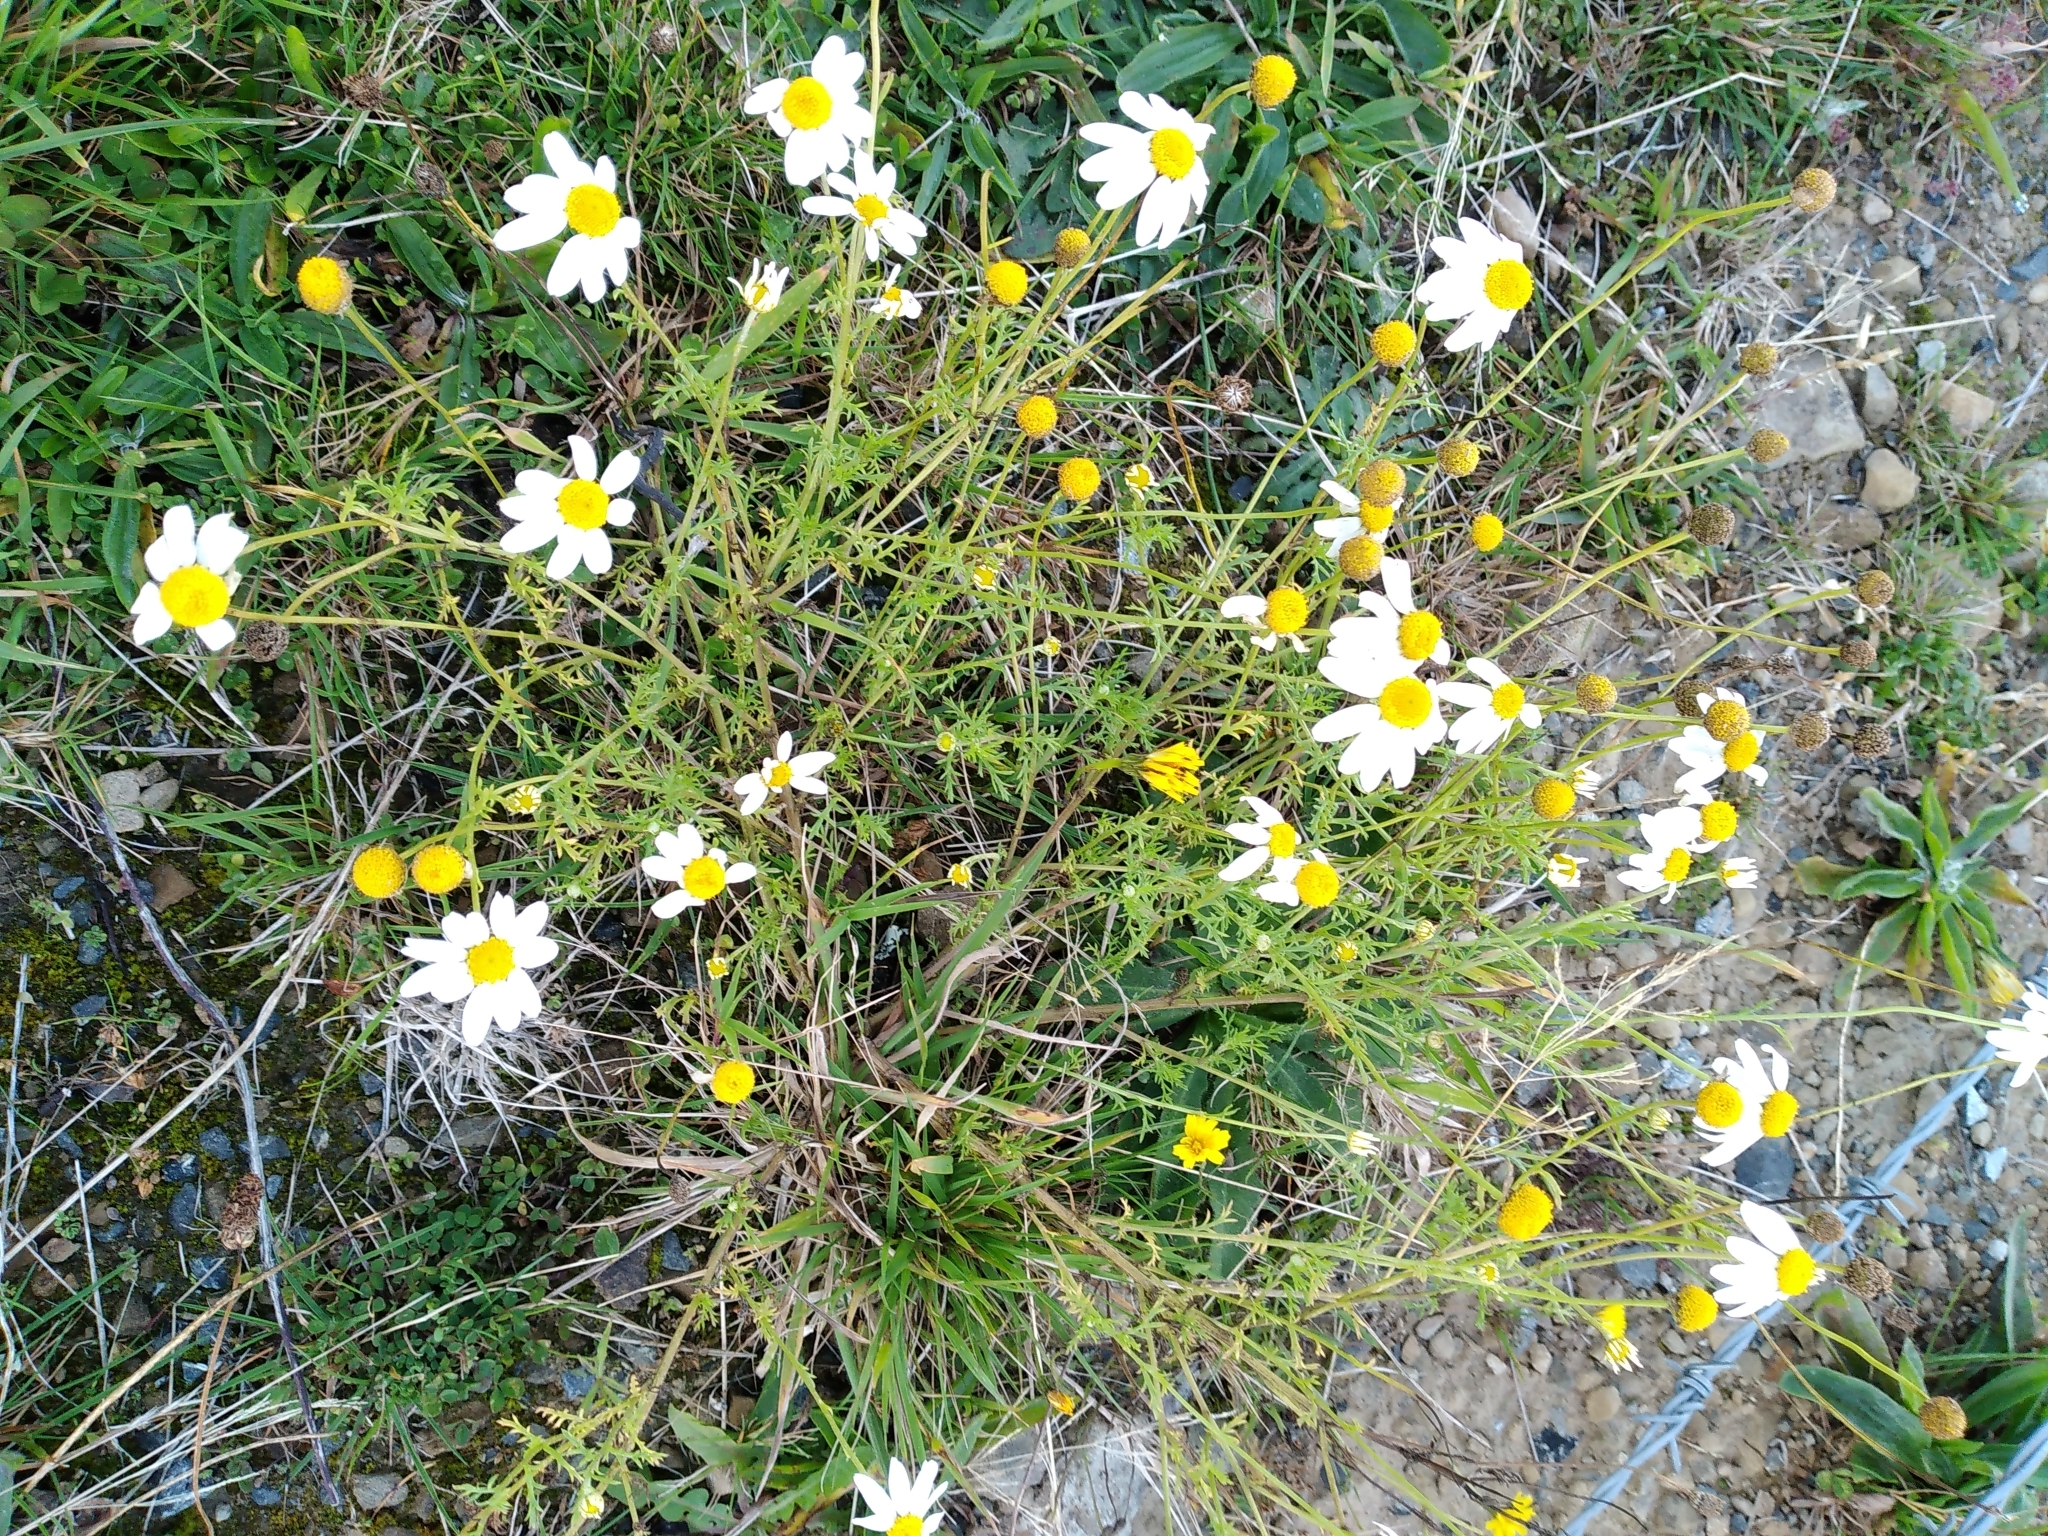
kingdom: Plantae
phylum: Tracheophyta
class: Magnoliopsida
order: Asterales
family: Asteraceae
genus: Anthemis
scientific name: Anthemis cotula
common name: Stinking chamomile
